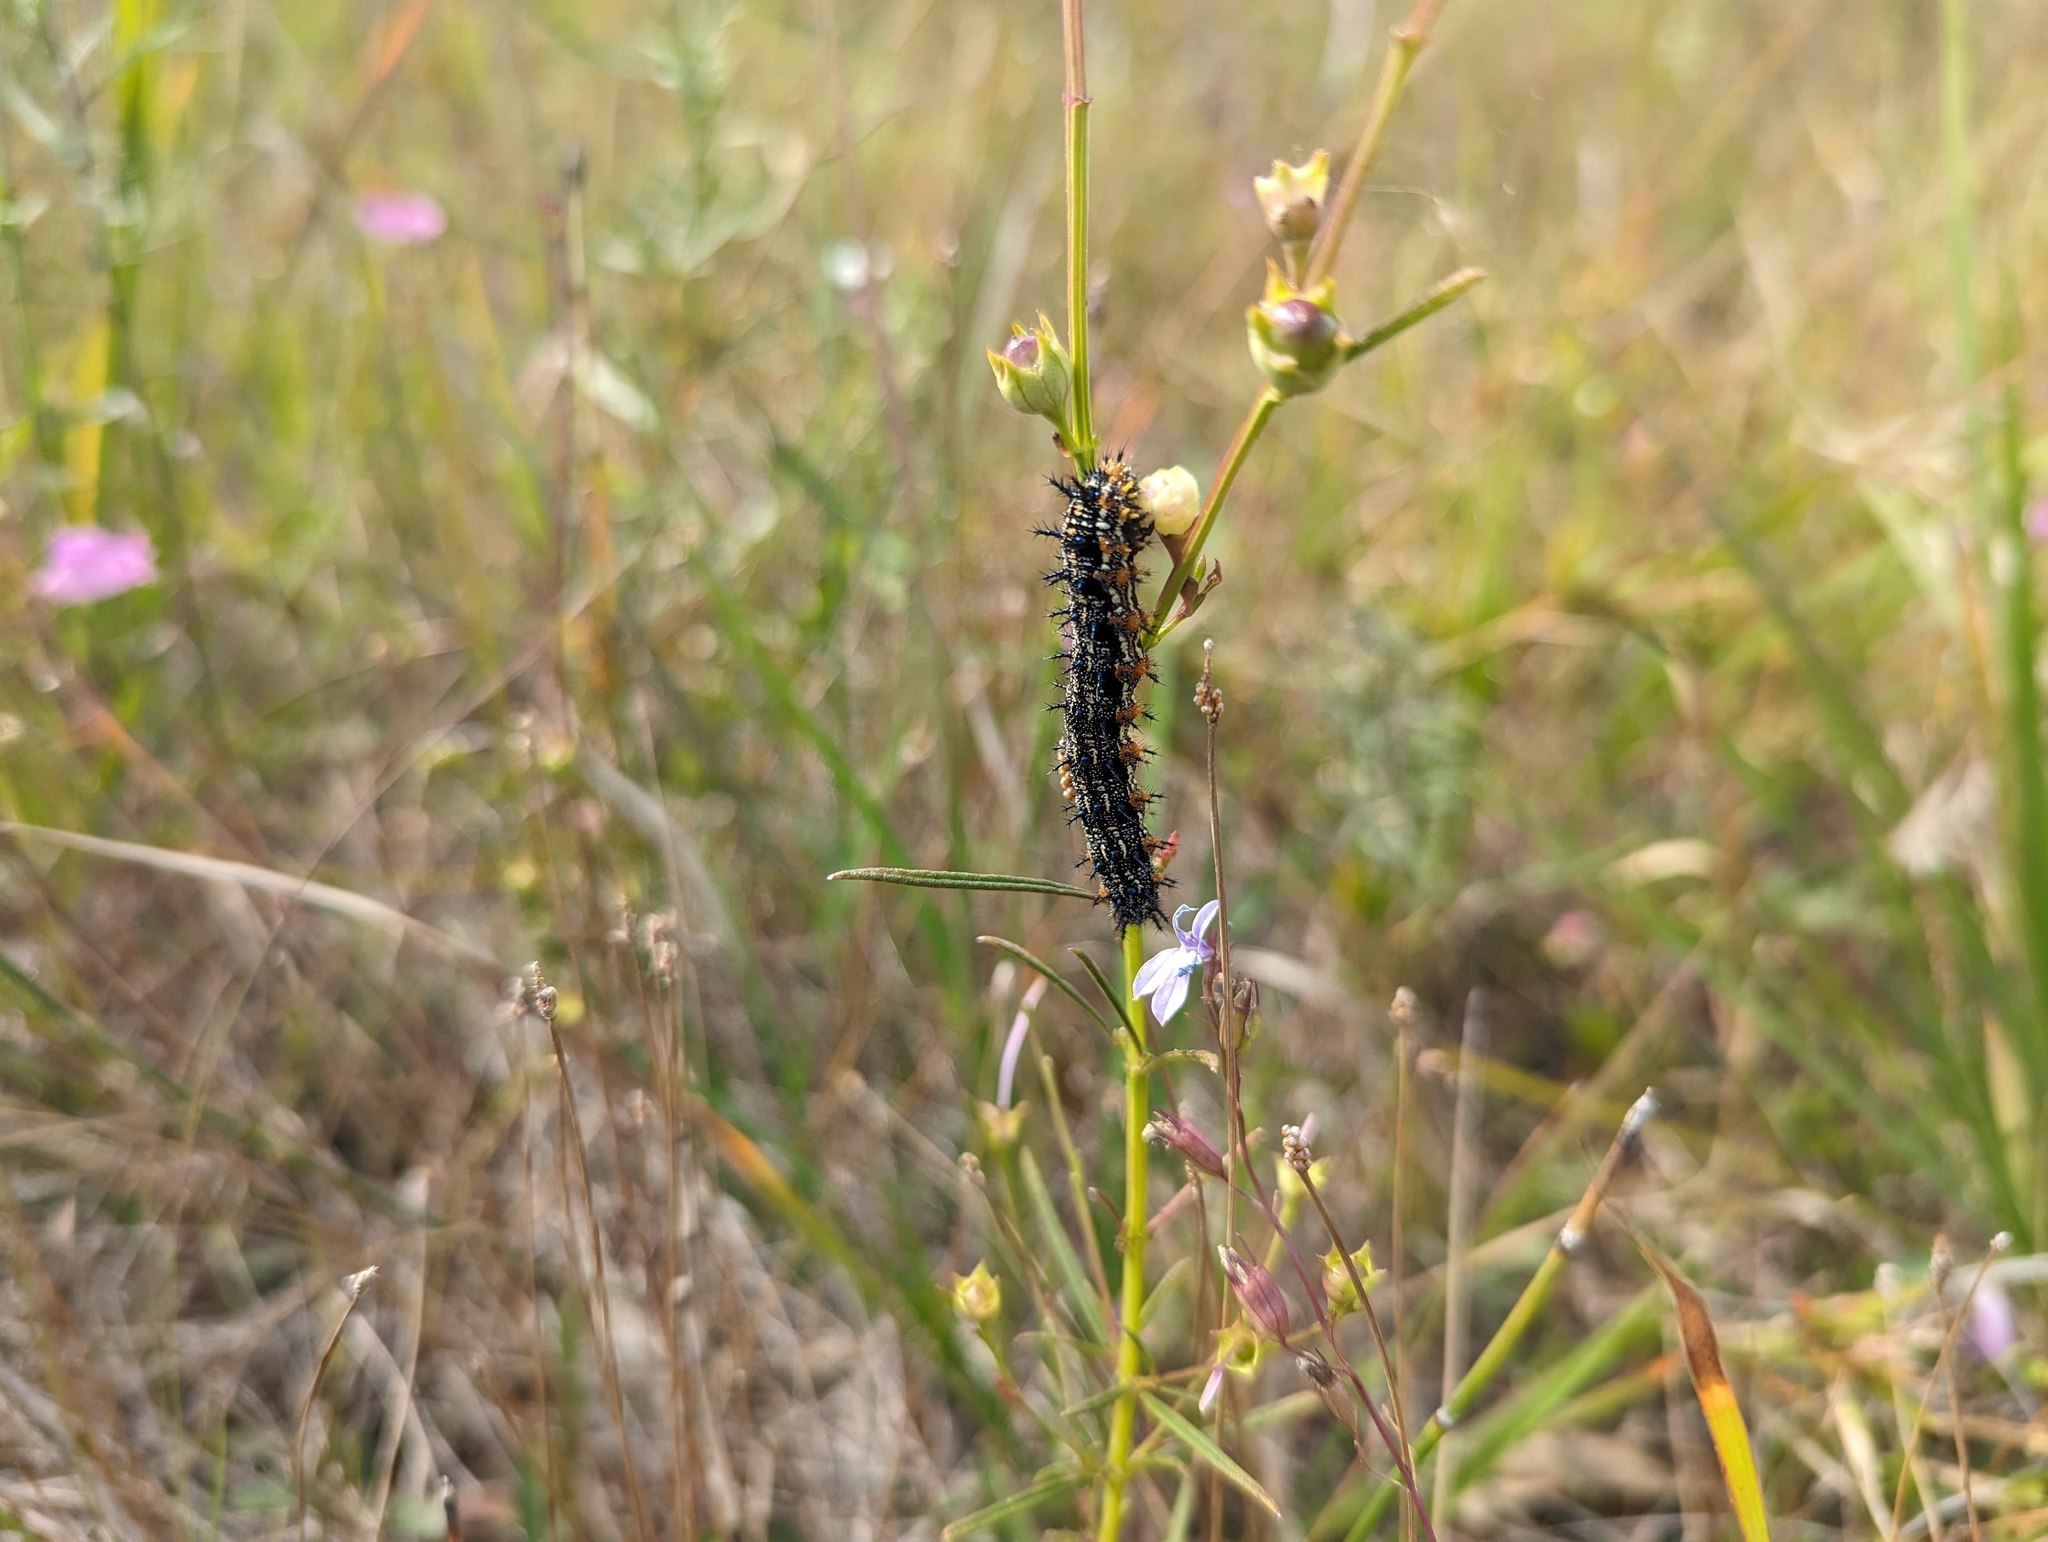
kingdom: Animalia
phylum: Arthropoda
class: Insecta
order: Lepidoptera
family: Nymphalidae
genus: Junonia
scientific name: Junonia coenia
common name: Common buckeye
